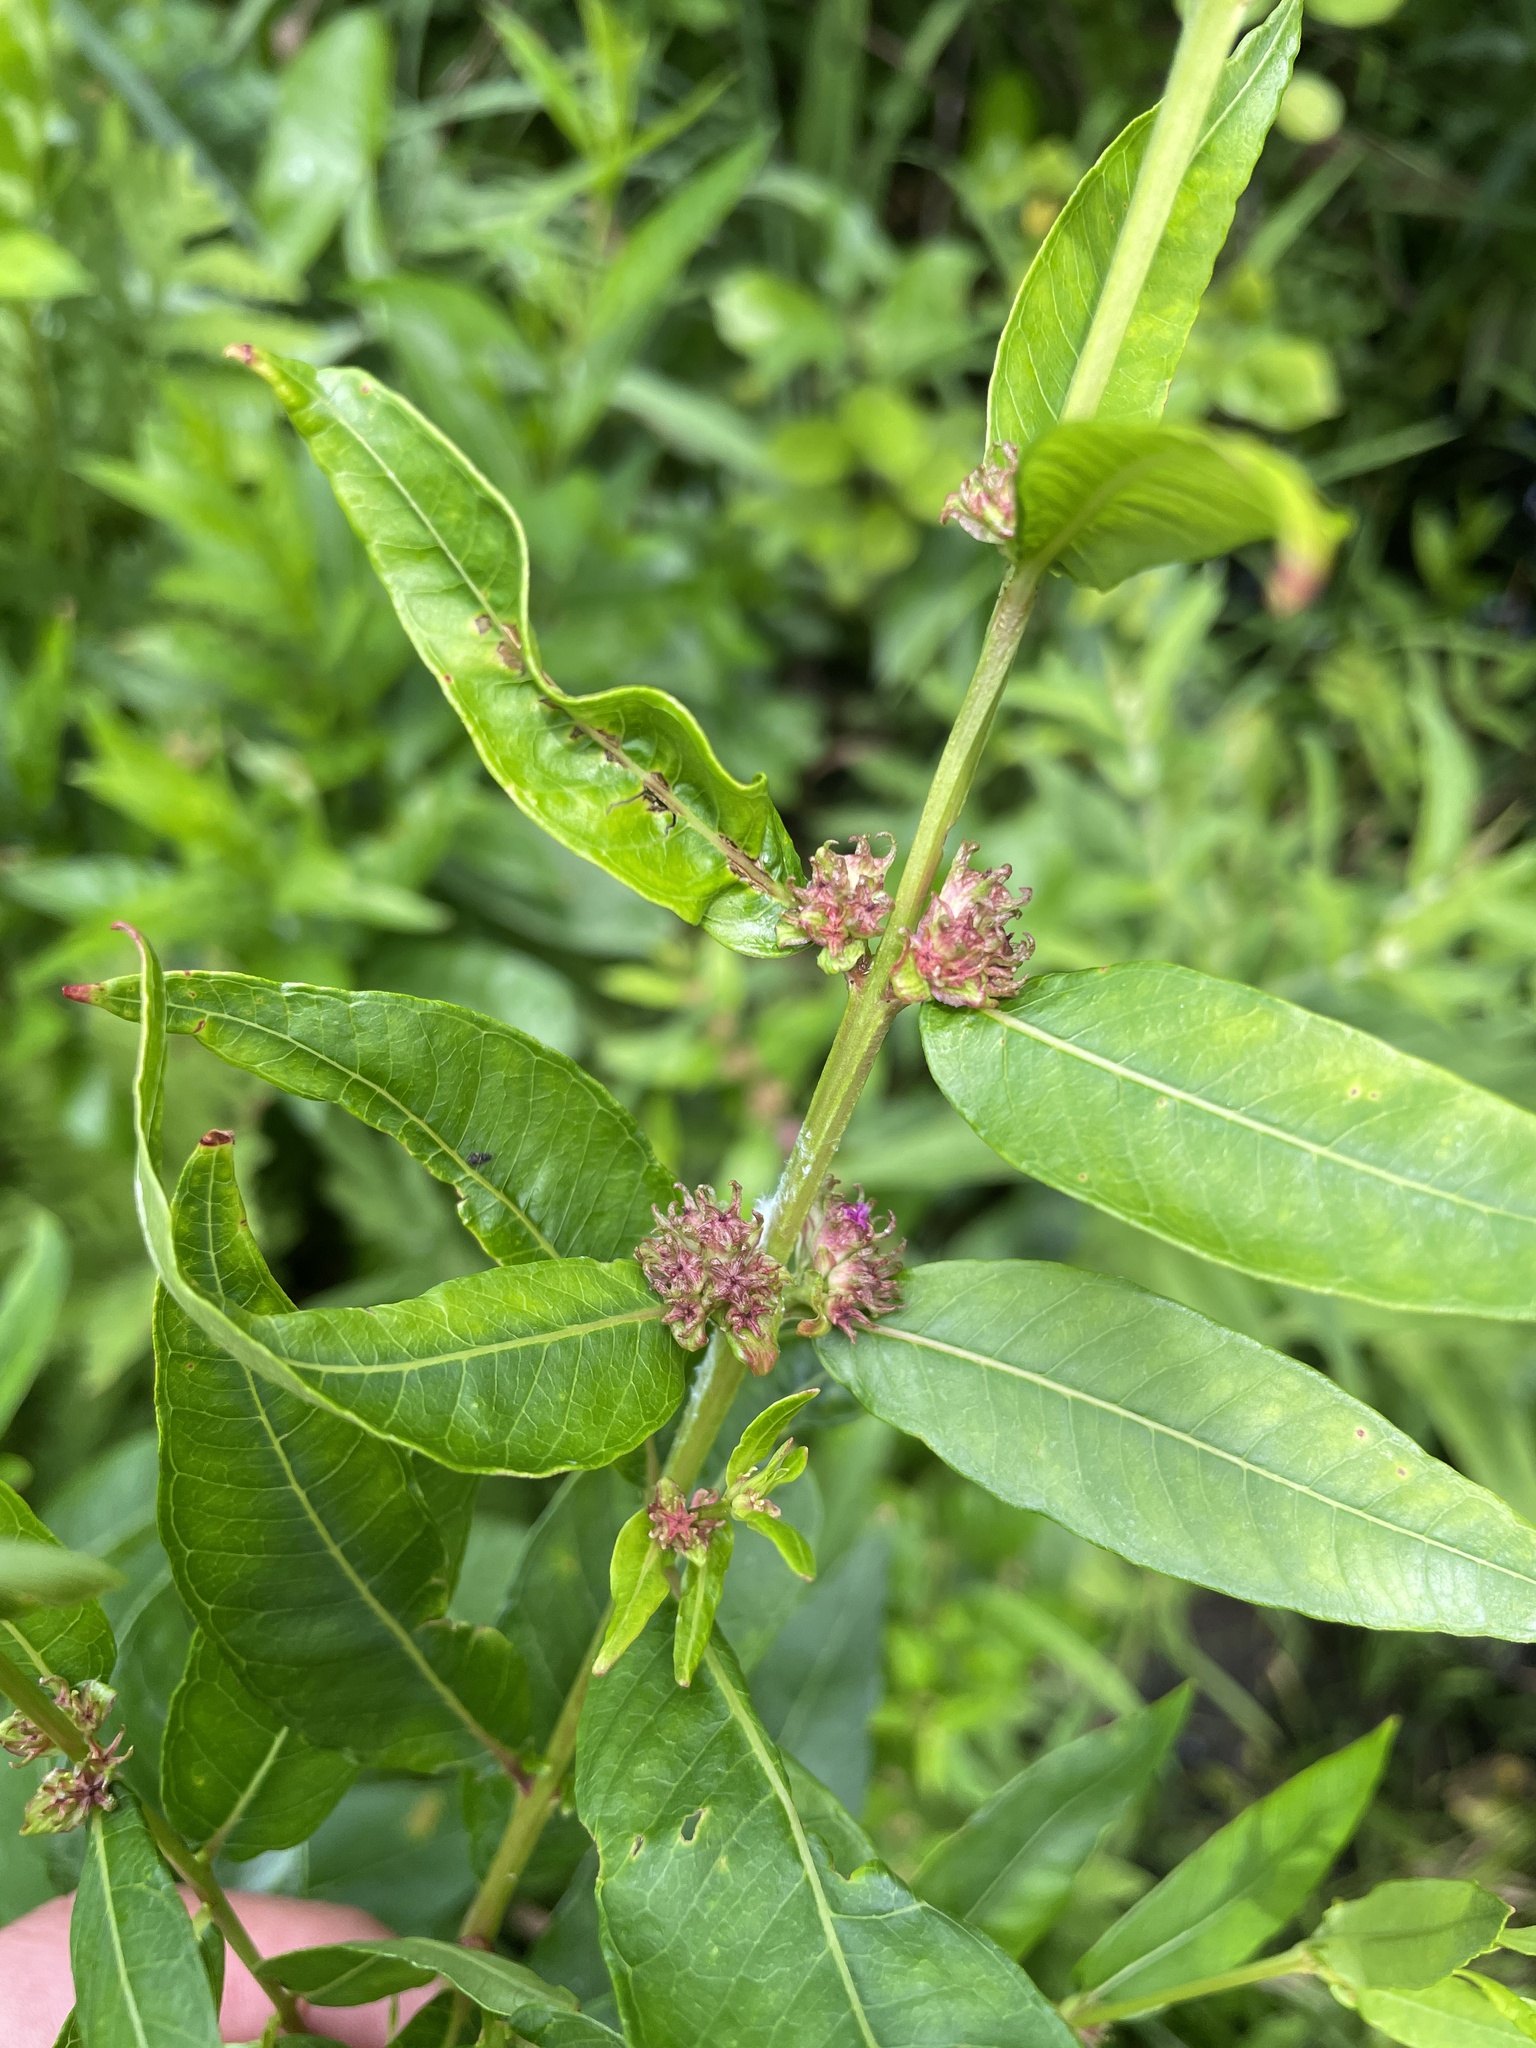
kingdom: Plantae
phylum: Tracheophyta
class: Magnoliopsida
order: Myrtales
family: Lythraceae
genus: Decodon
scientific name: Decodon verticillatus
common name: Hairy swamp loosestrife
